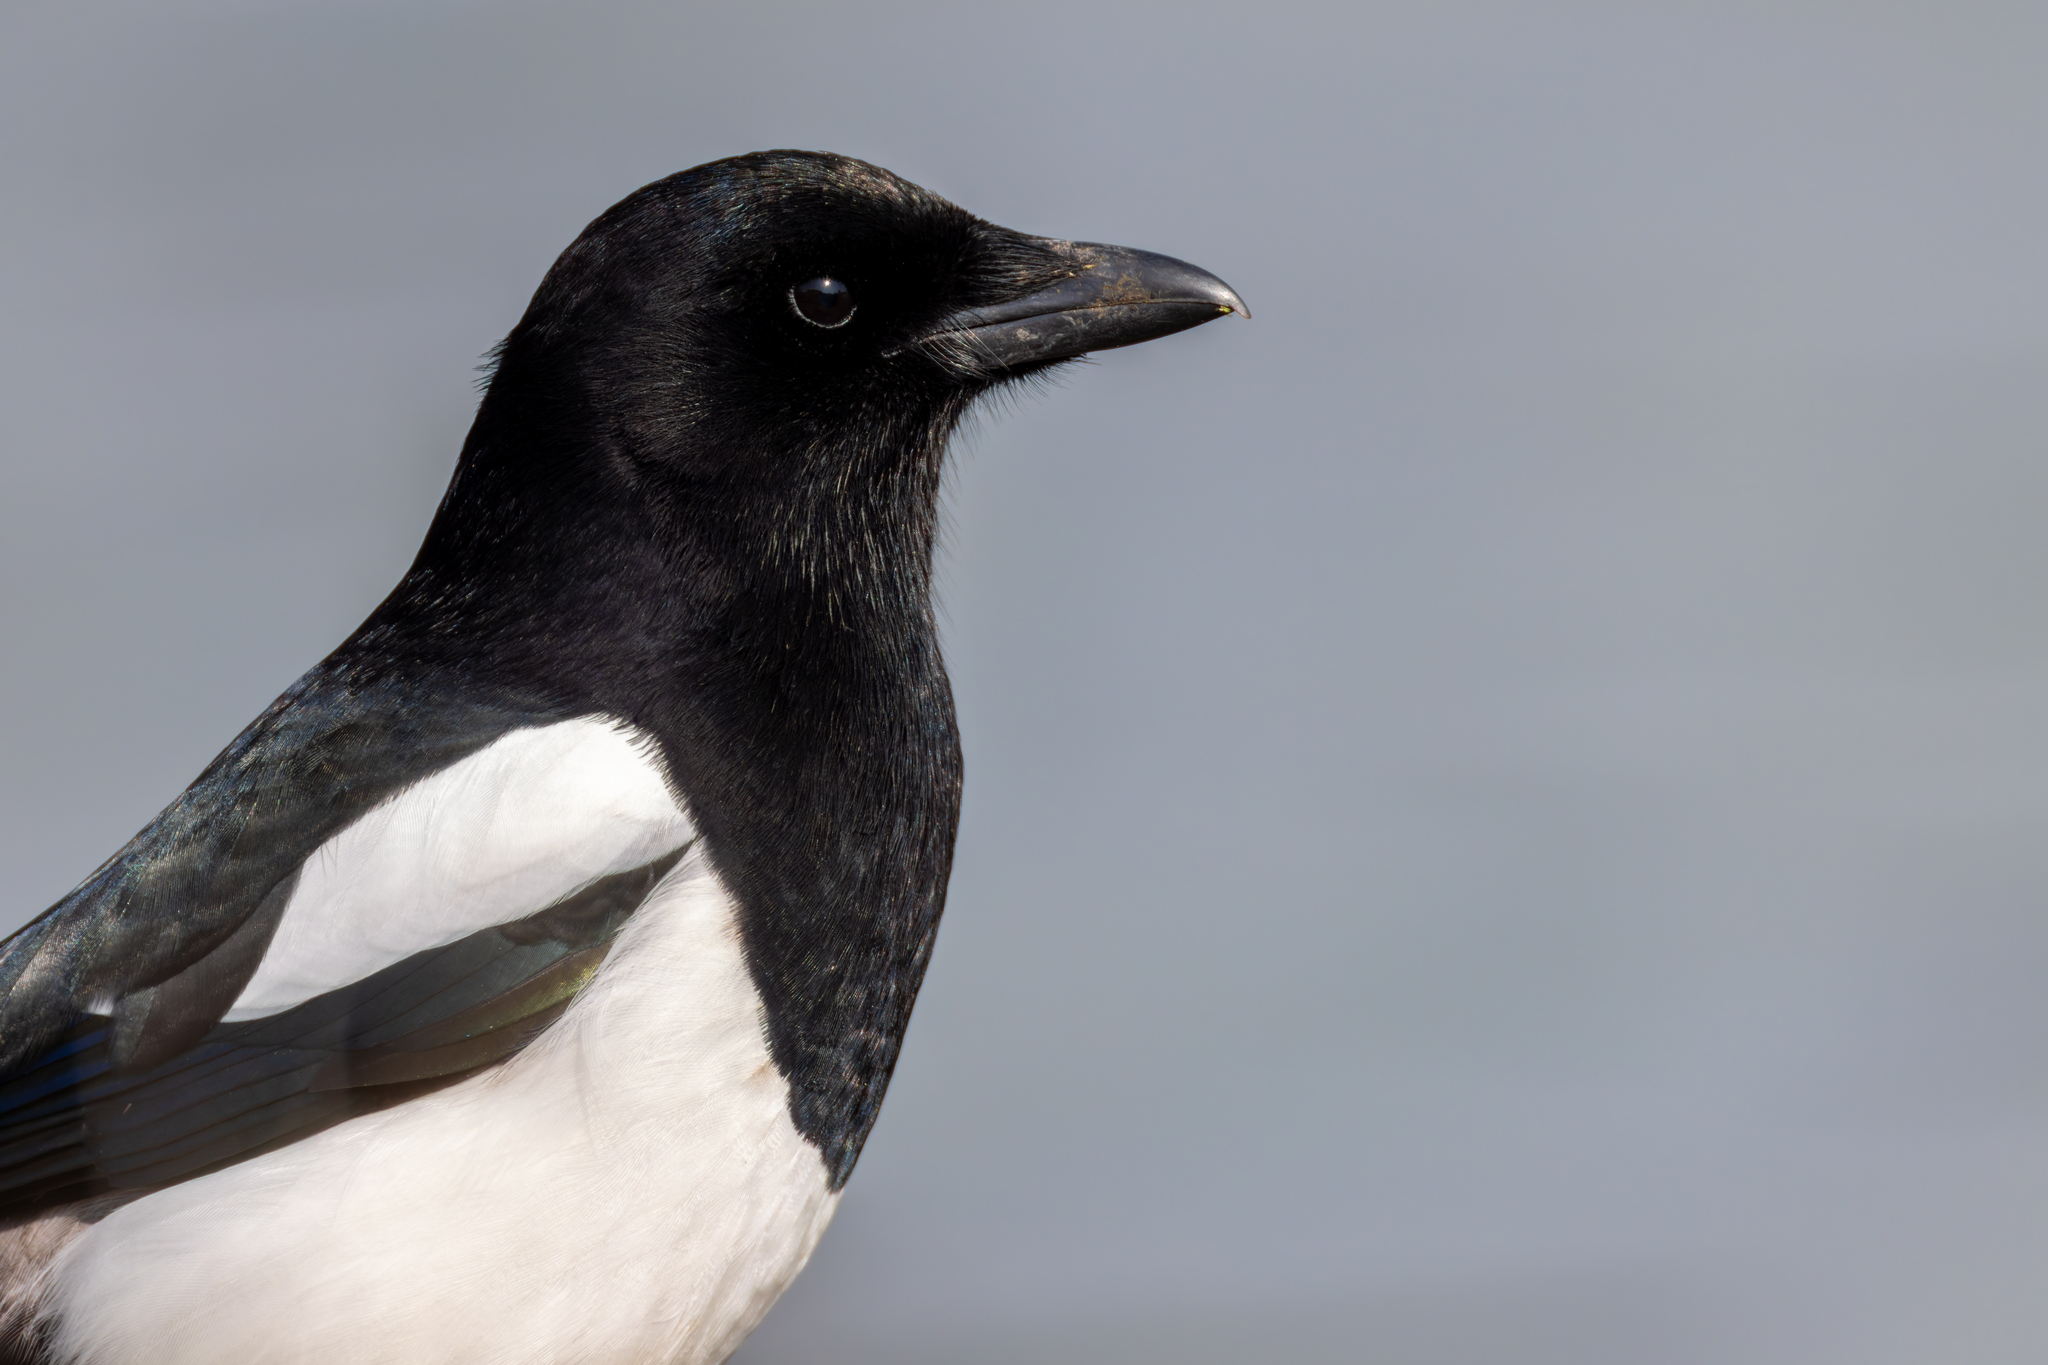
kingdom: Animalia
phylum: Chordata
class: Aves
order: Passeriformes
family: Corvidae
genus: Pica
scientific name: Pica pica
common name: Eurasian magpie
